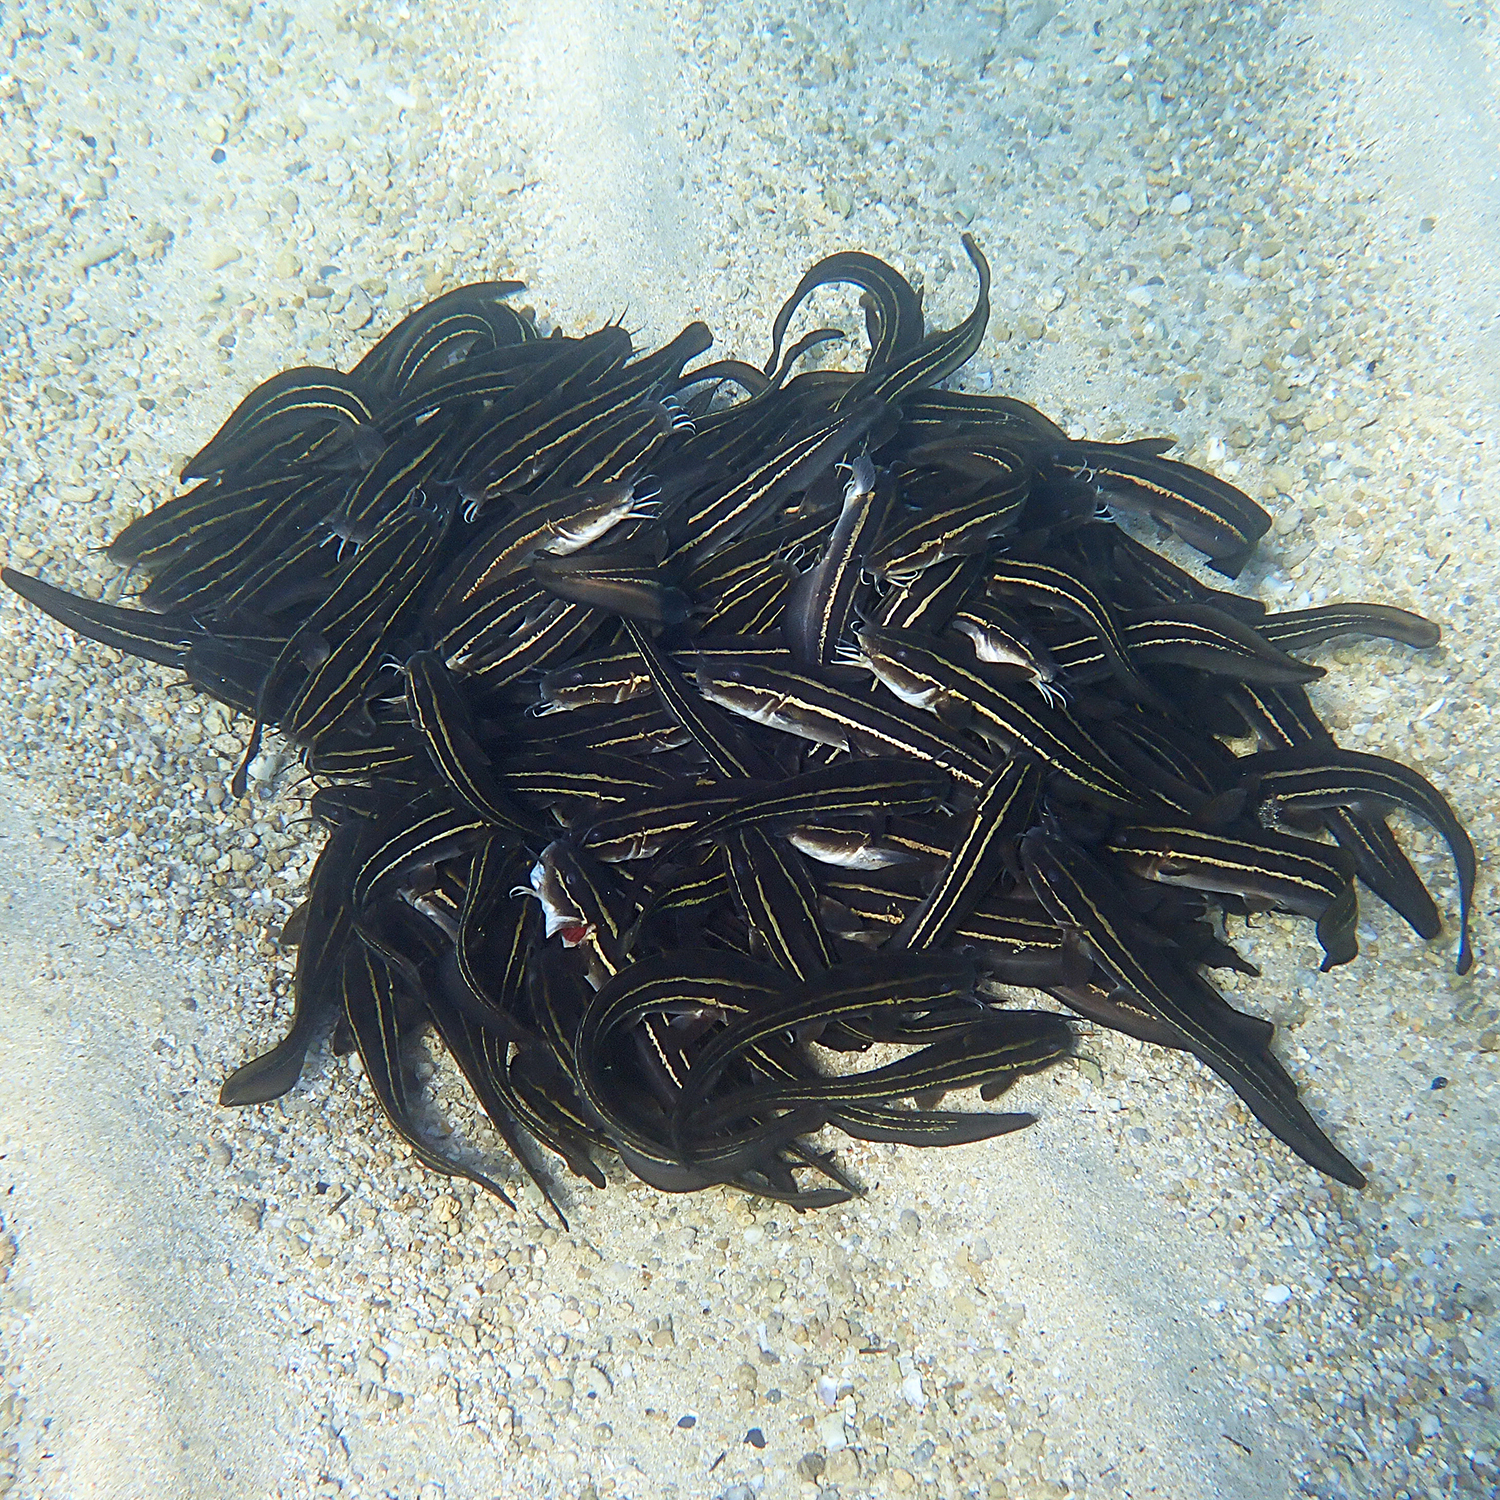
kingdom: Animalia
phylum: Chordata
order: Siluriformes
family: Plotosidae
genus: Plotosus
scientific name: Plotosus lineatus
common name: Striped eel catfish
